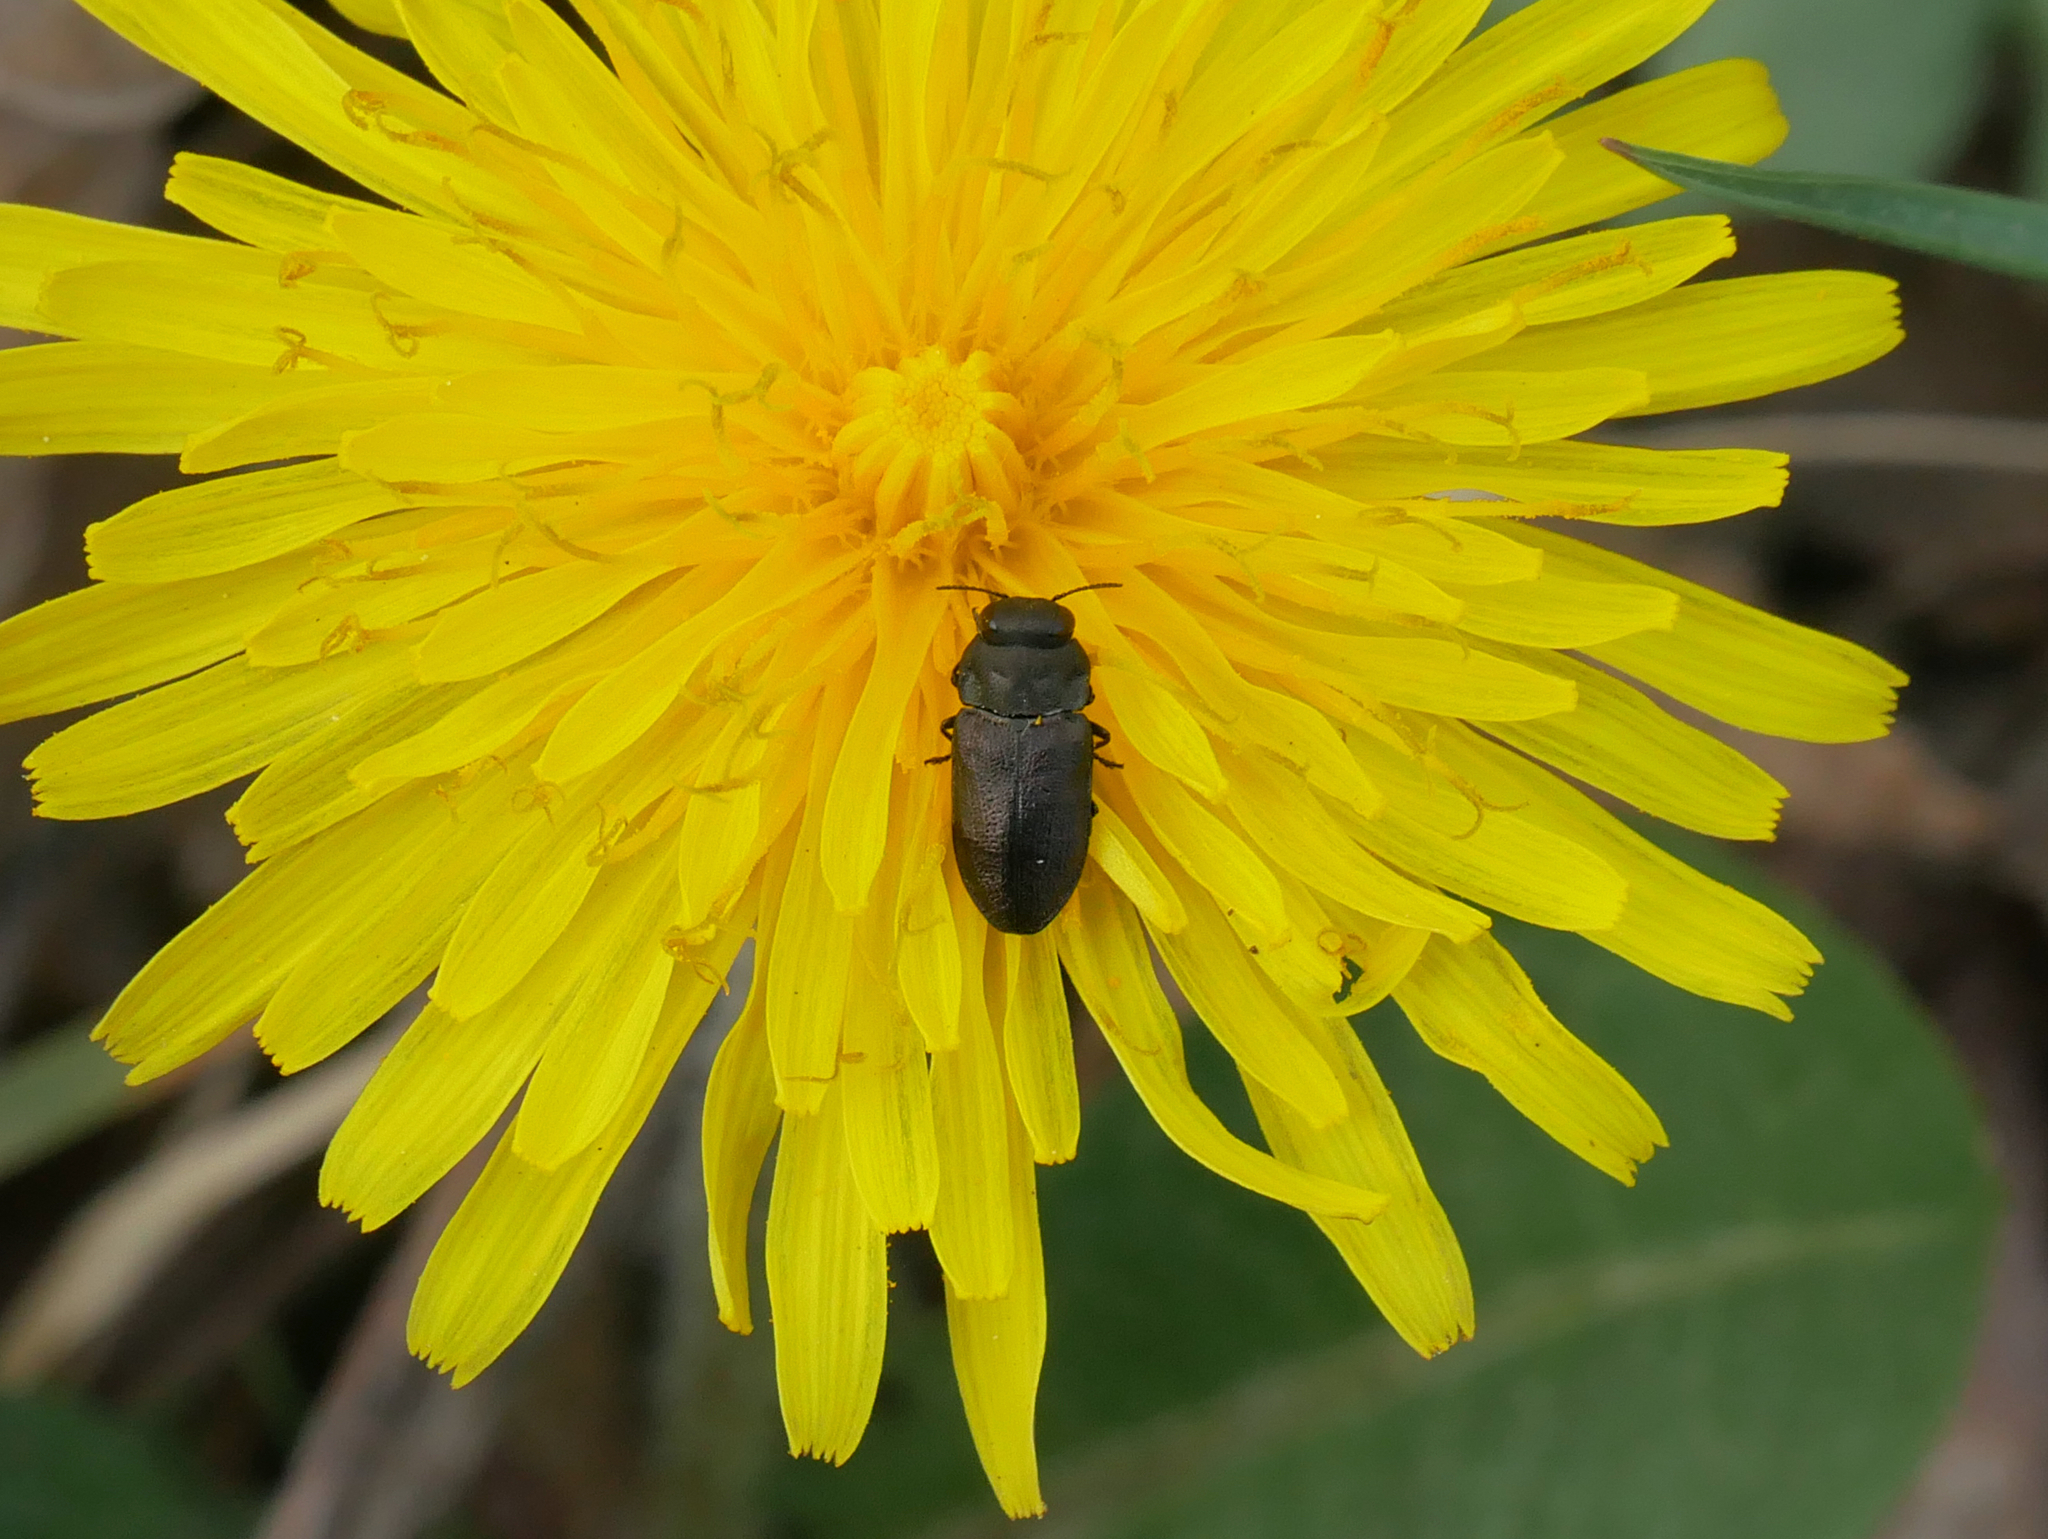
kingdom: Animalia
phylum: Arthropoda
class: Insecta
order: Coleoptera
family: Buprestidae
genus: Anthaxia
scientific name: Anthaxia quadripunctata
